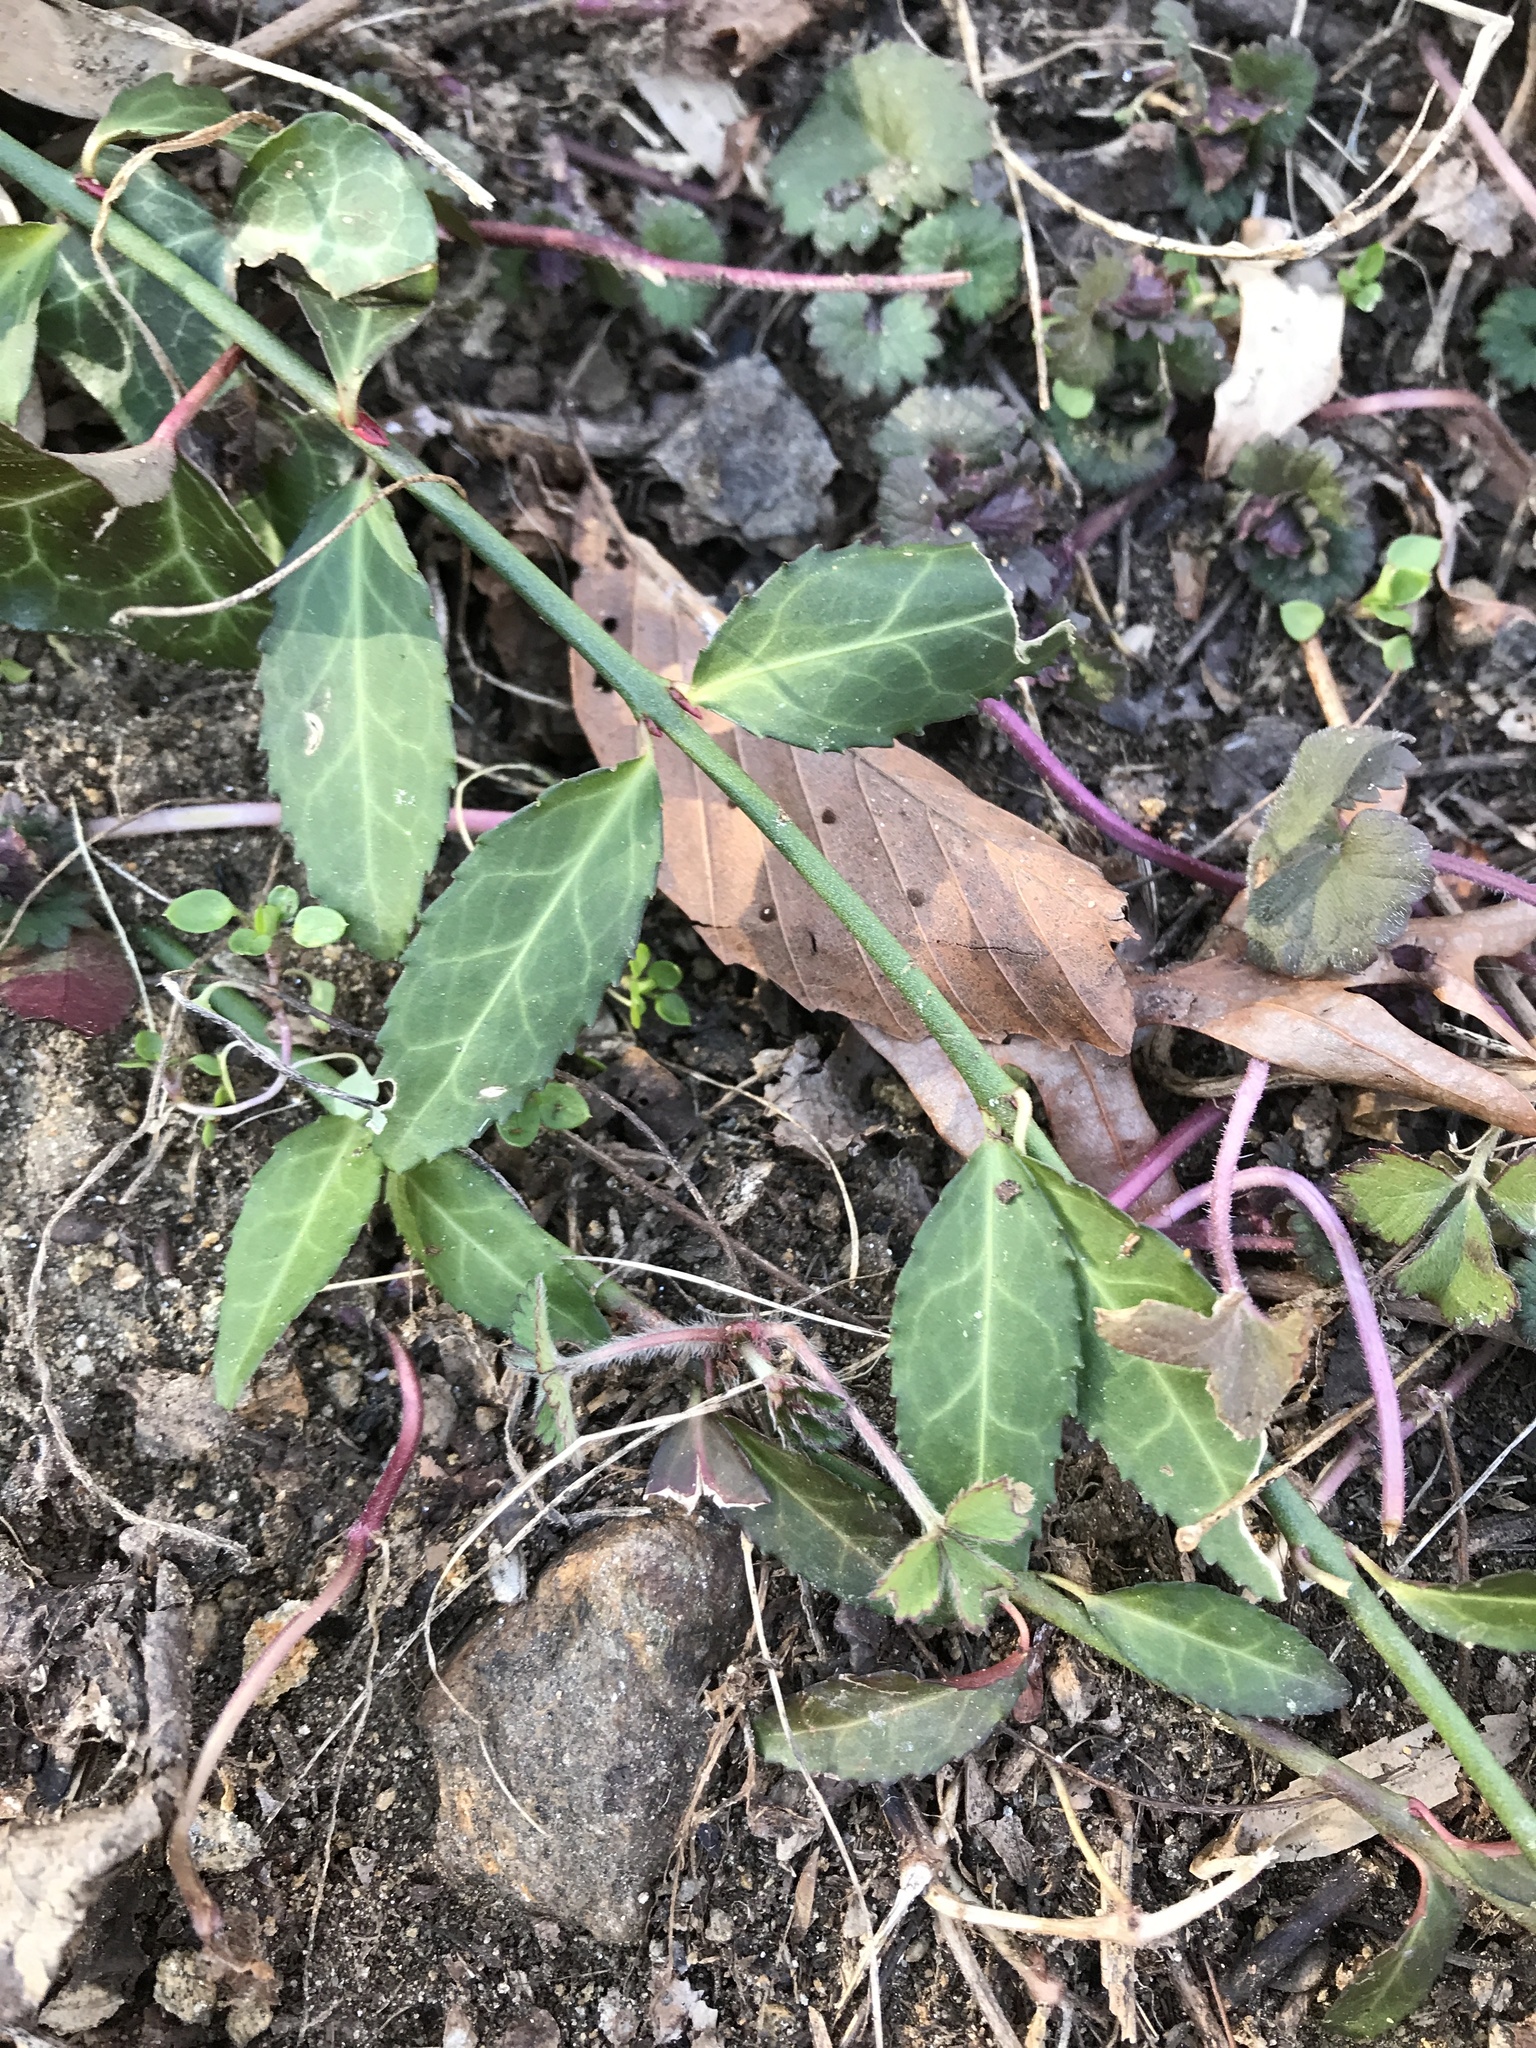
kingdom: Plantae
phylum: Tracheophyta
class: Magnoliopsida
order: Celastrales
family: Celastraceae
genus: Euonymus
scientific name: Euonymus fortunei
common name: Climbing euonymus
